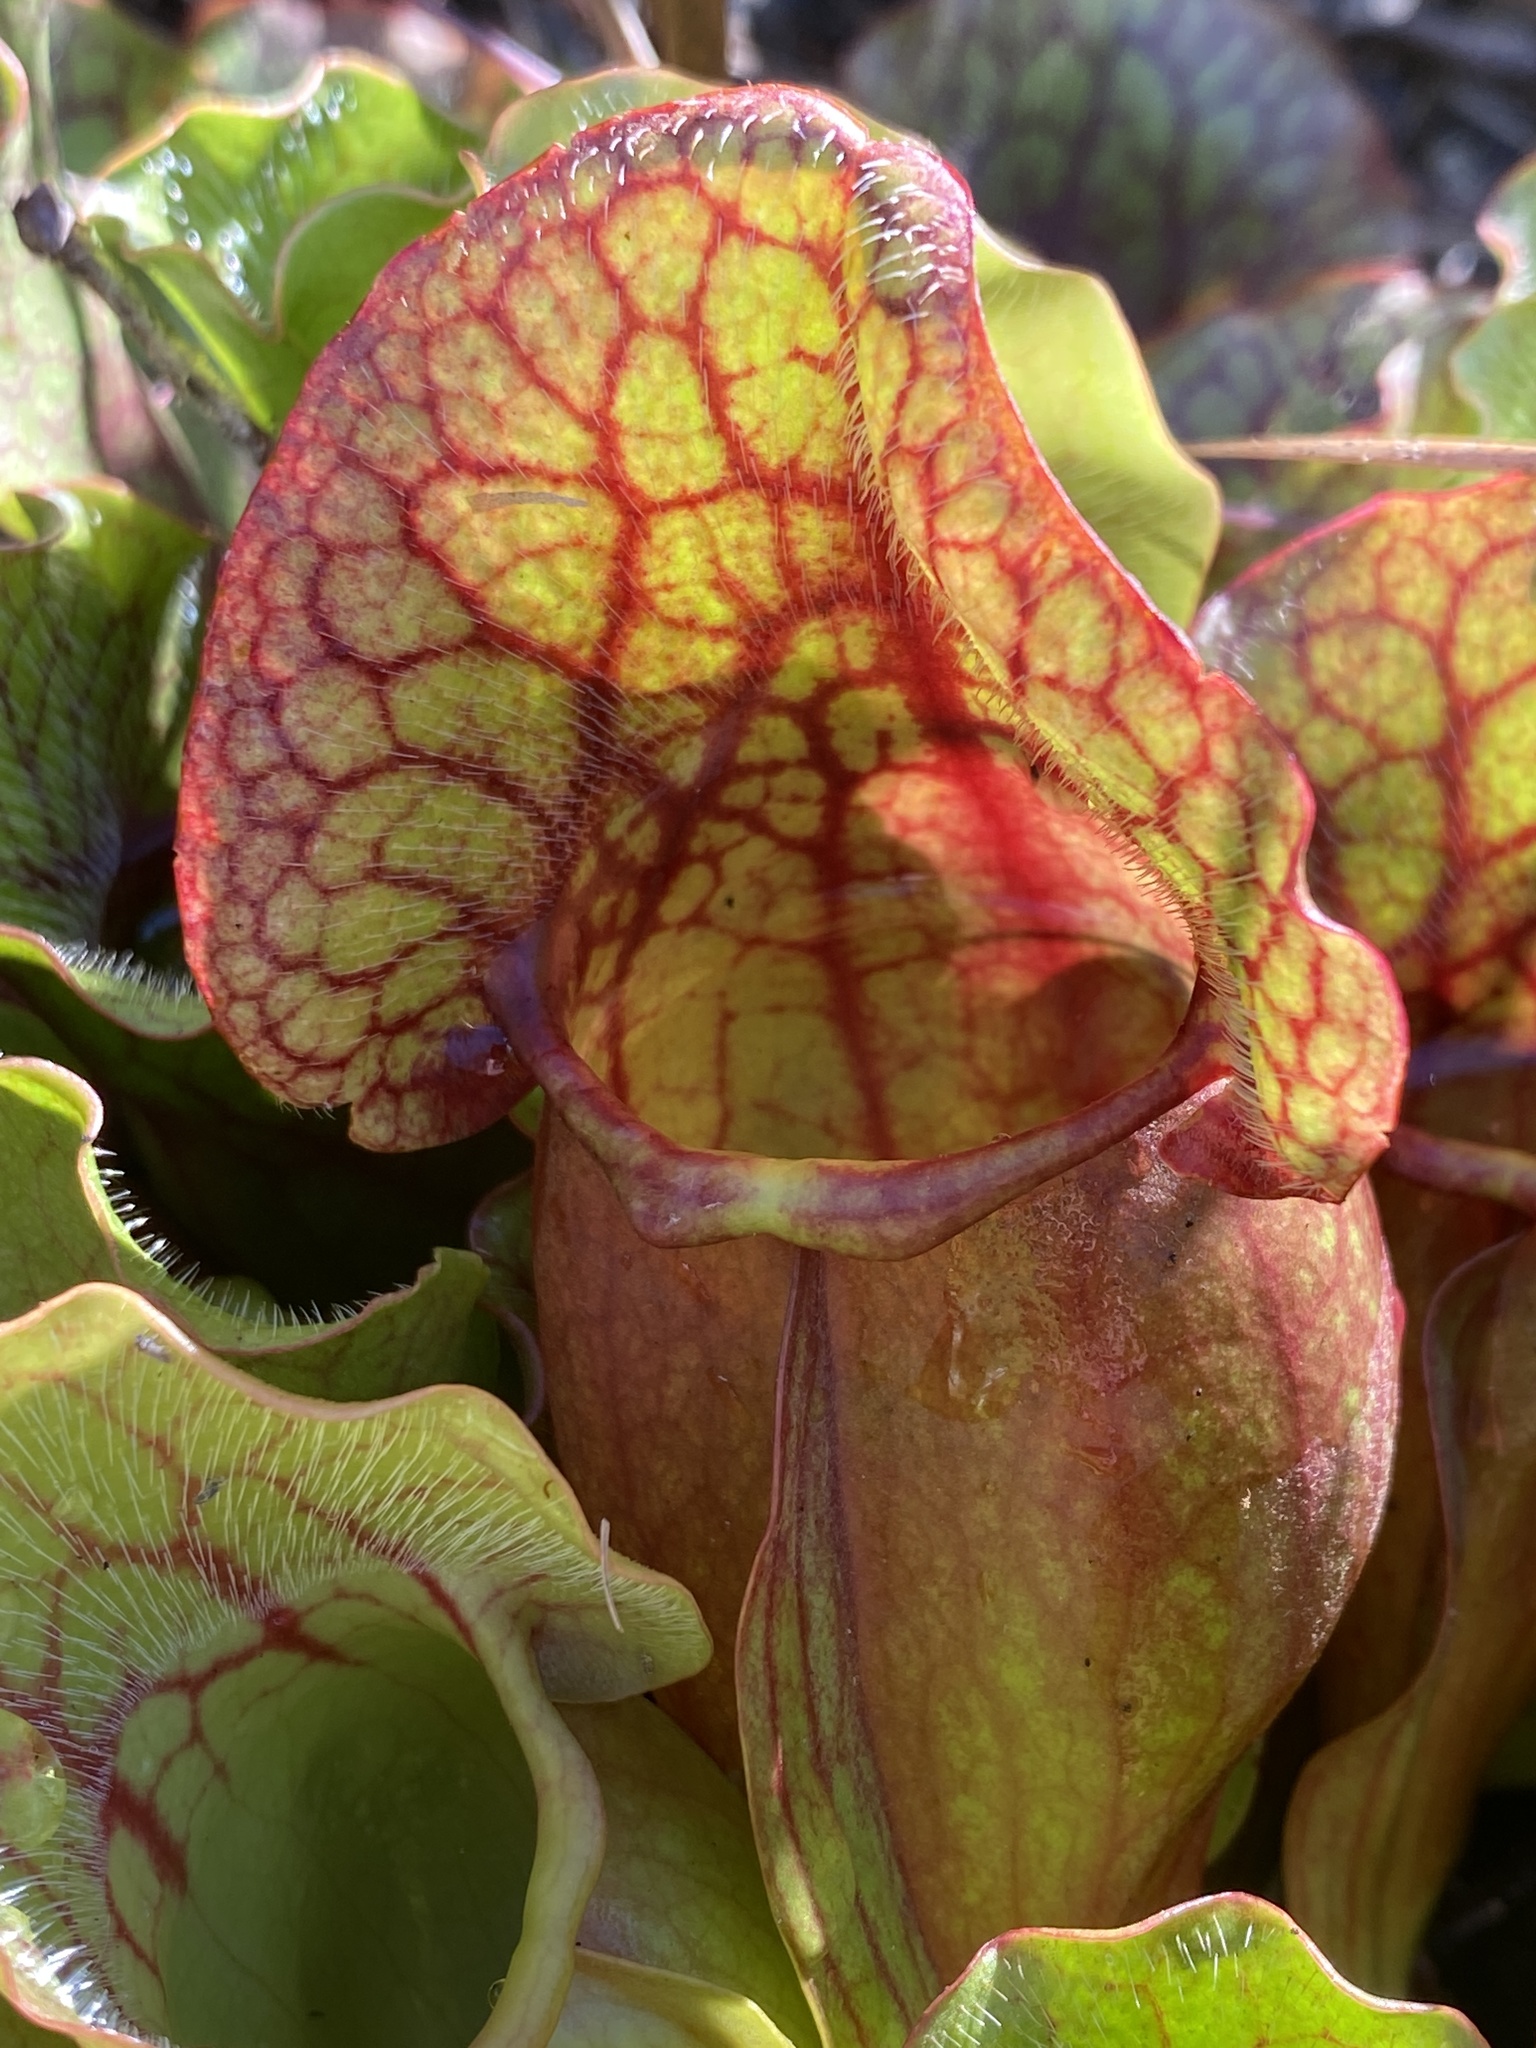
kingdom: Plantae
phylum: Tracheophyta
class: Magnoliopsida
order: Ericales
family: Sarraceniaceae
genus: Sarracenia
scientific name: Sarracenia purpurea
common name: Pitcherplant
